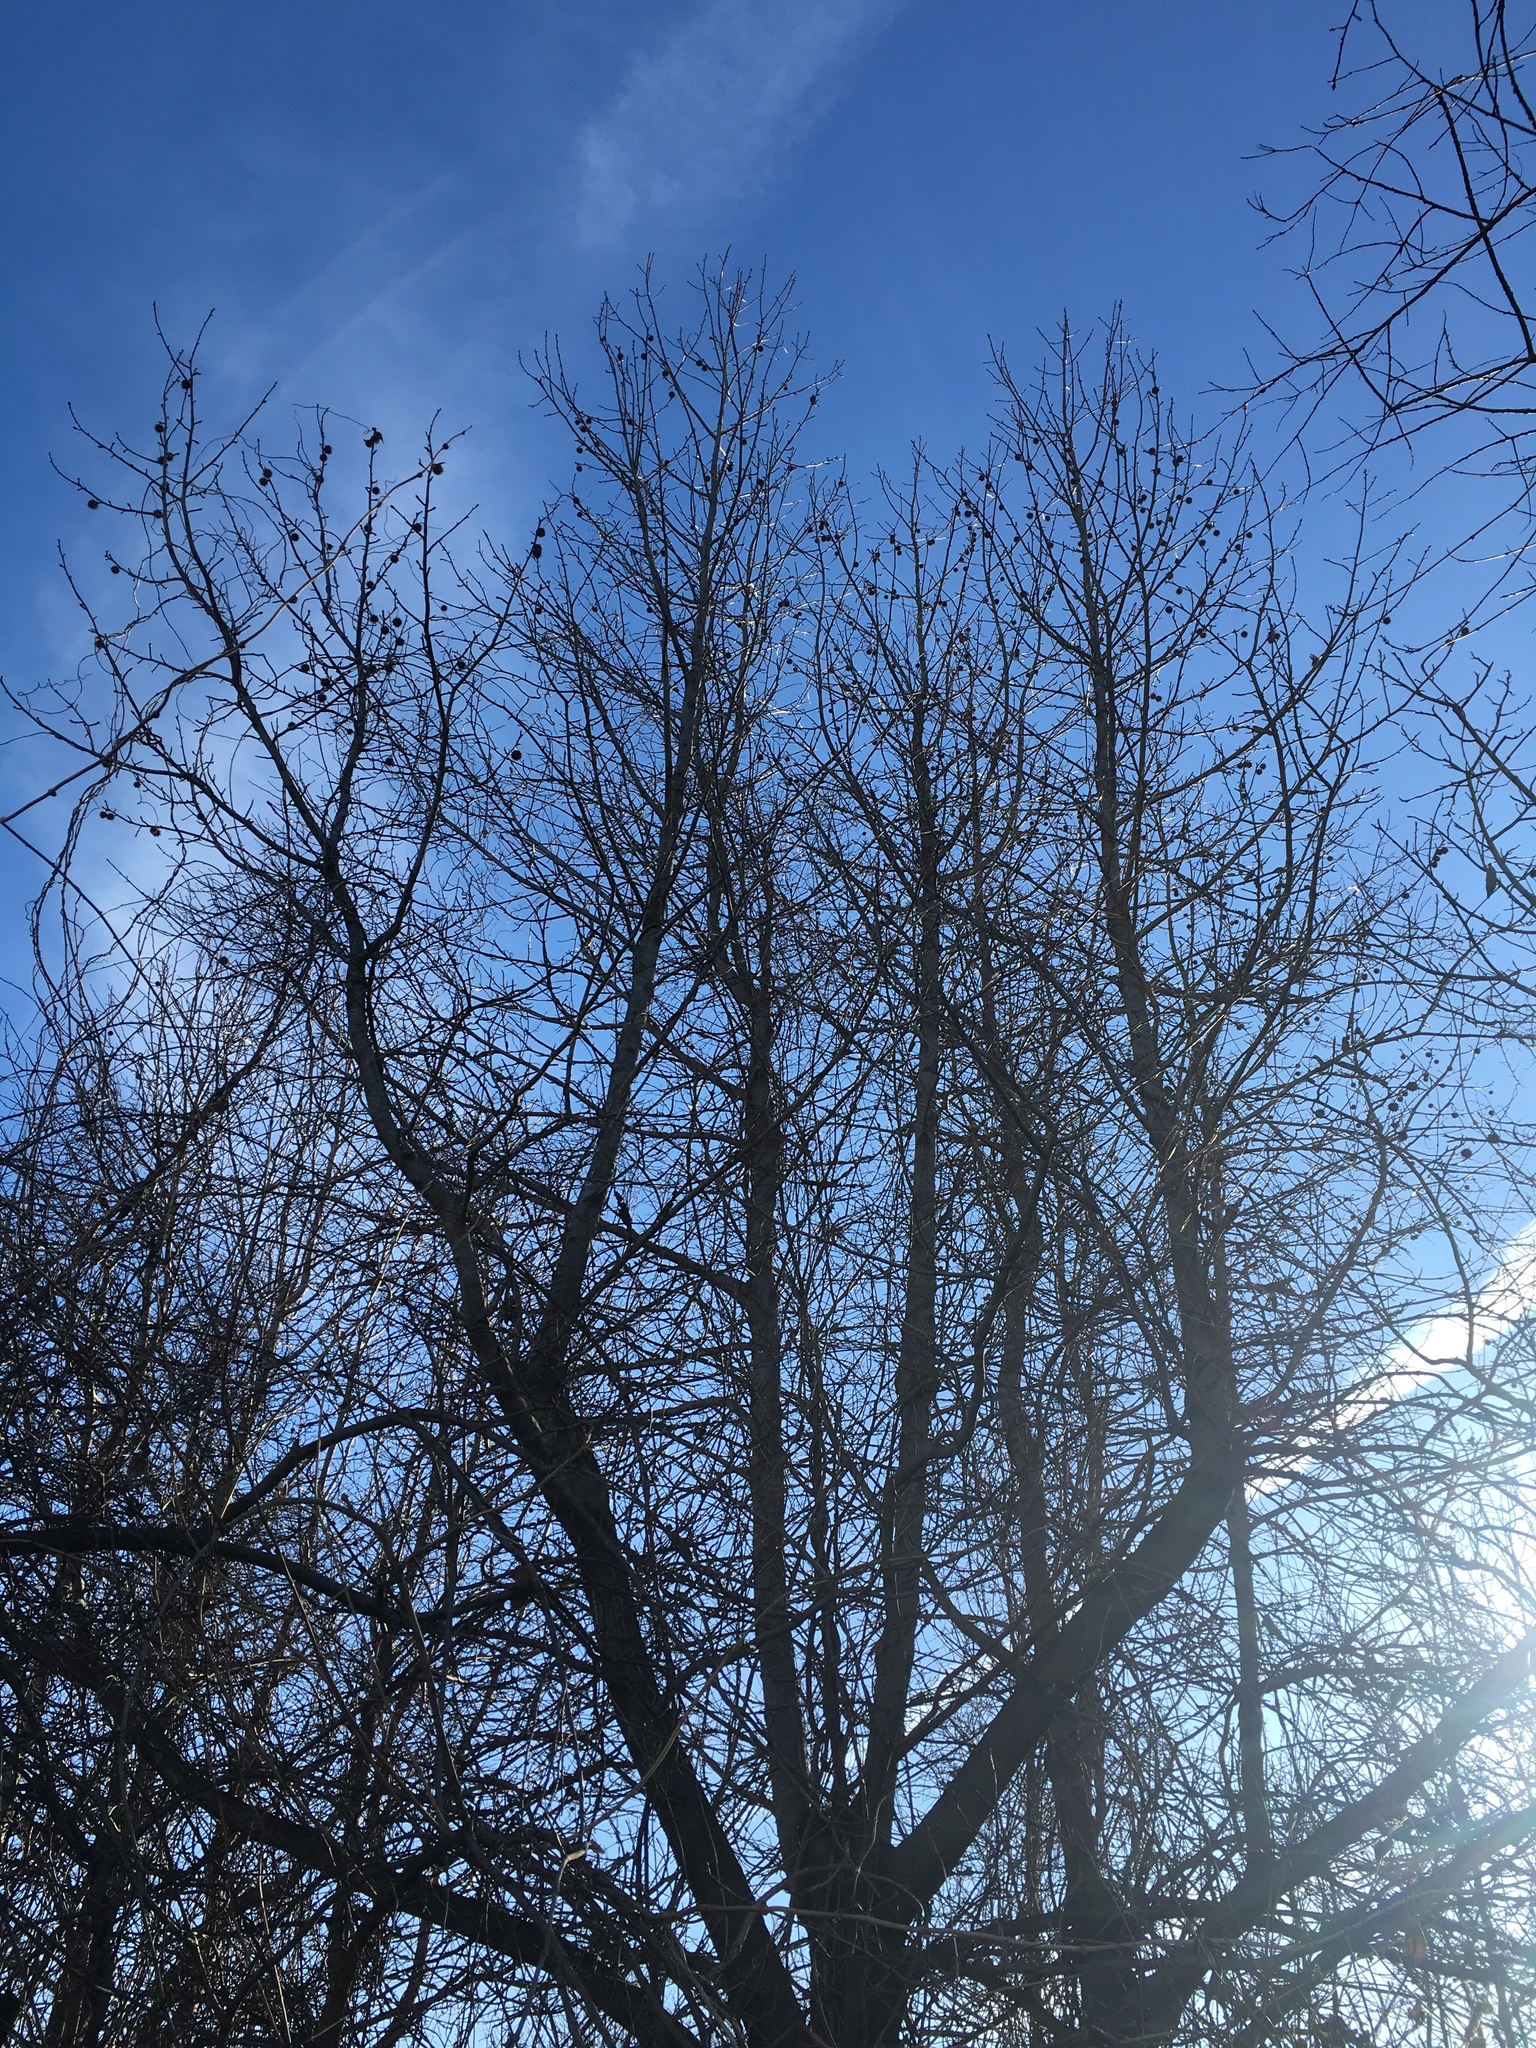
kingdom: Plantae
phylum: Tracheophyta
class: Magnoliopsida
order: Saxifragales
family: Altingiaceae
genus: Liquidambar
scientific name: Liquidambar styraciflua
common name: Sweet gum
